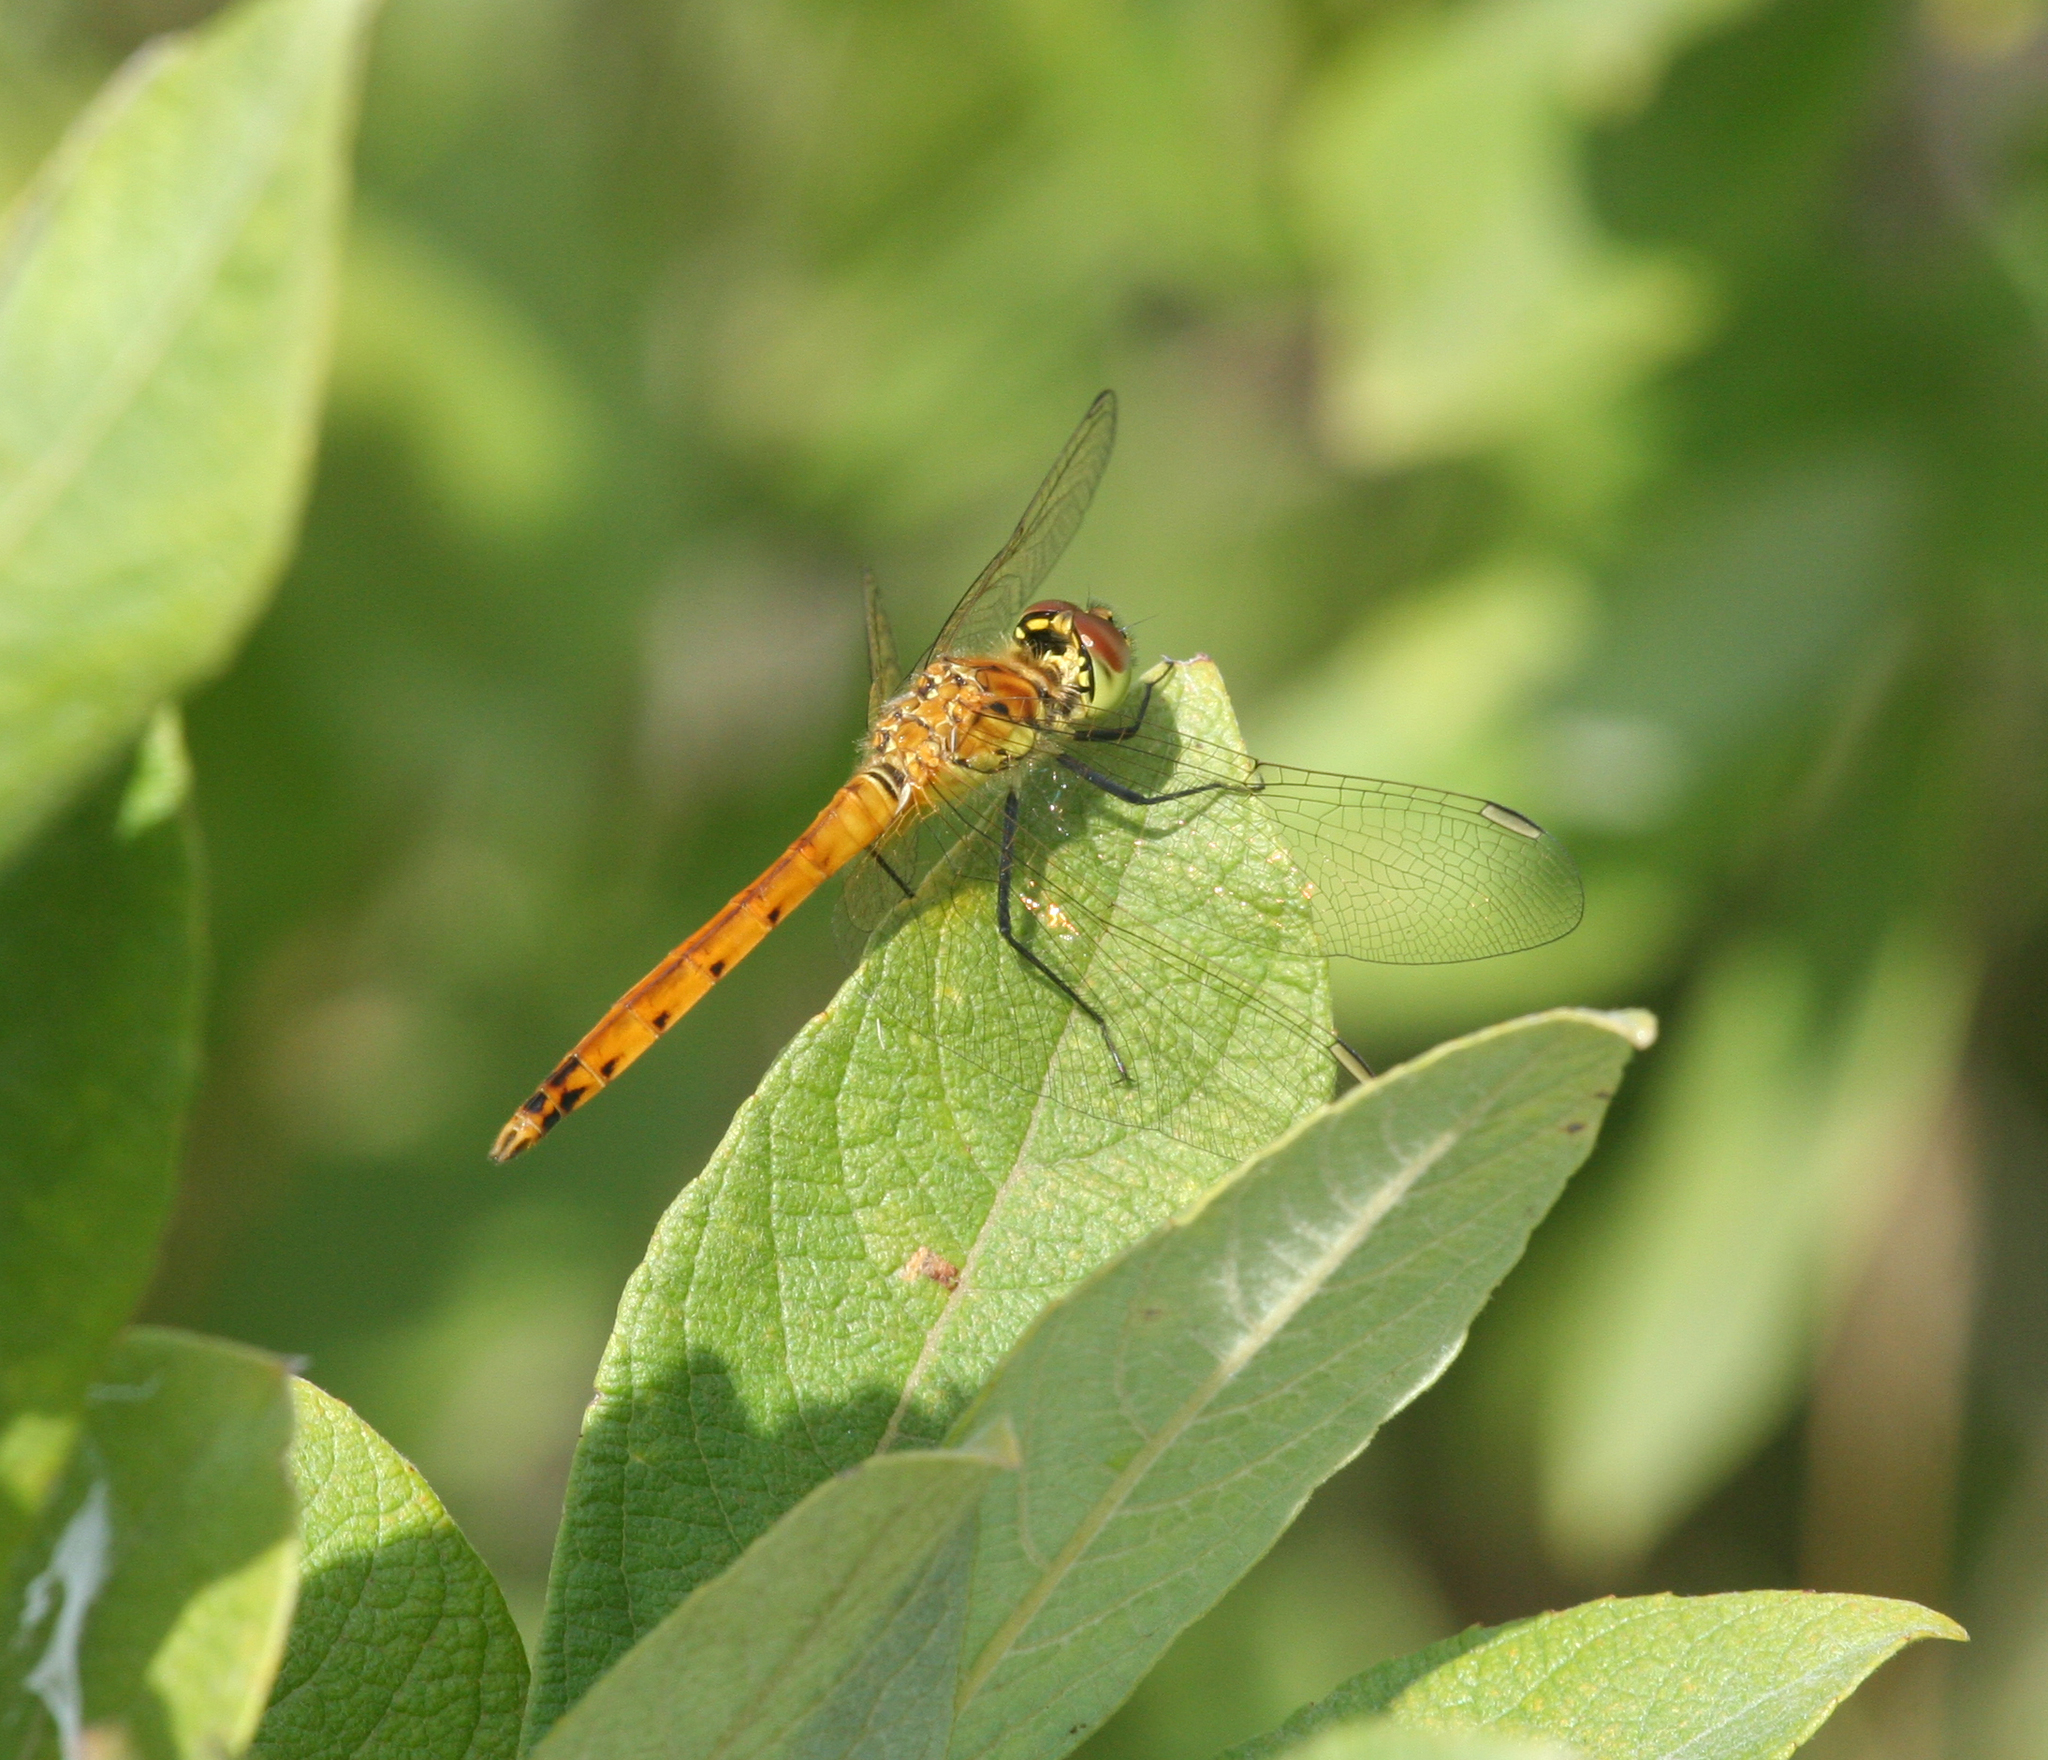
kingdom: Animalia
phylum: Arthropoda
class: Insecta
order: Odonata
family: Libellulidae
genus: Sympetrum
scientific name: Sympetrum depressiusculum
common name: Spotted darter
